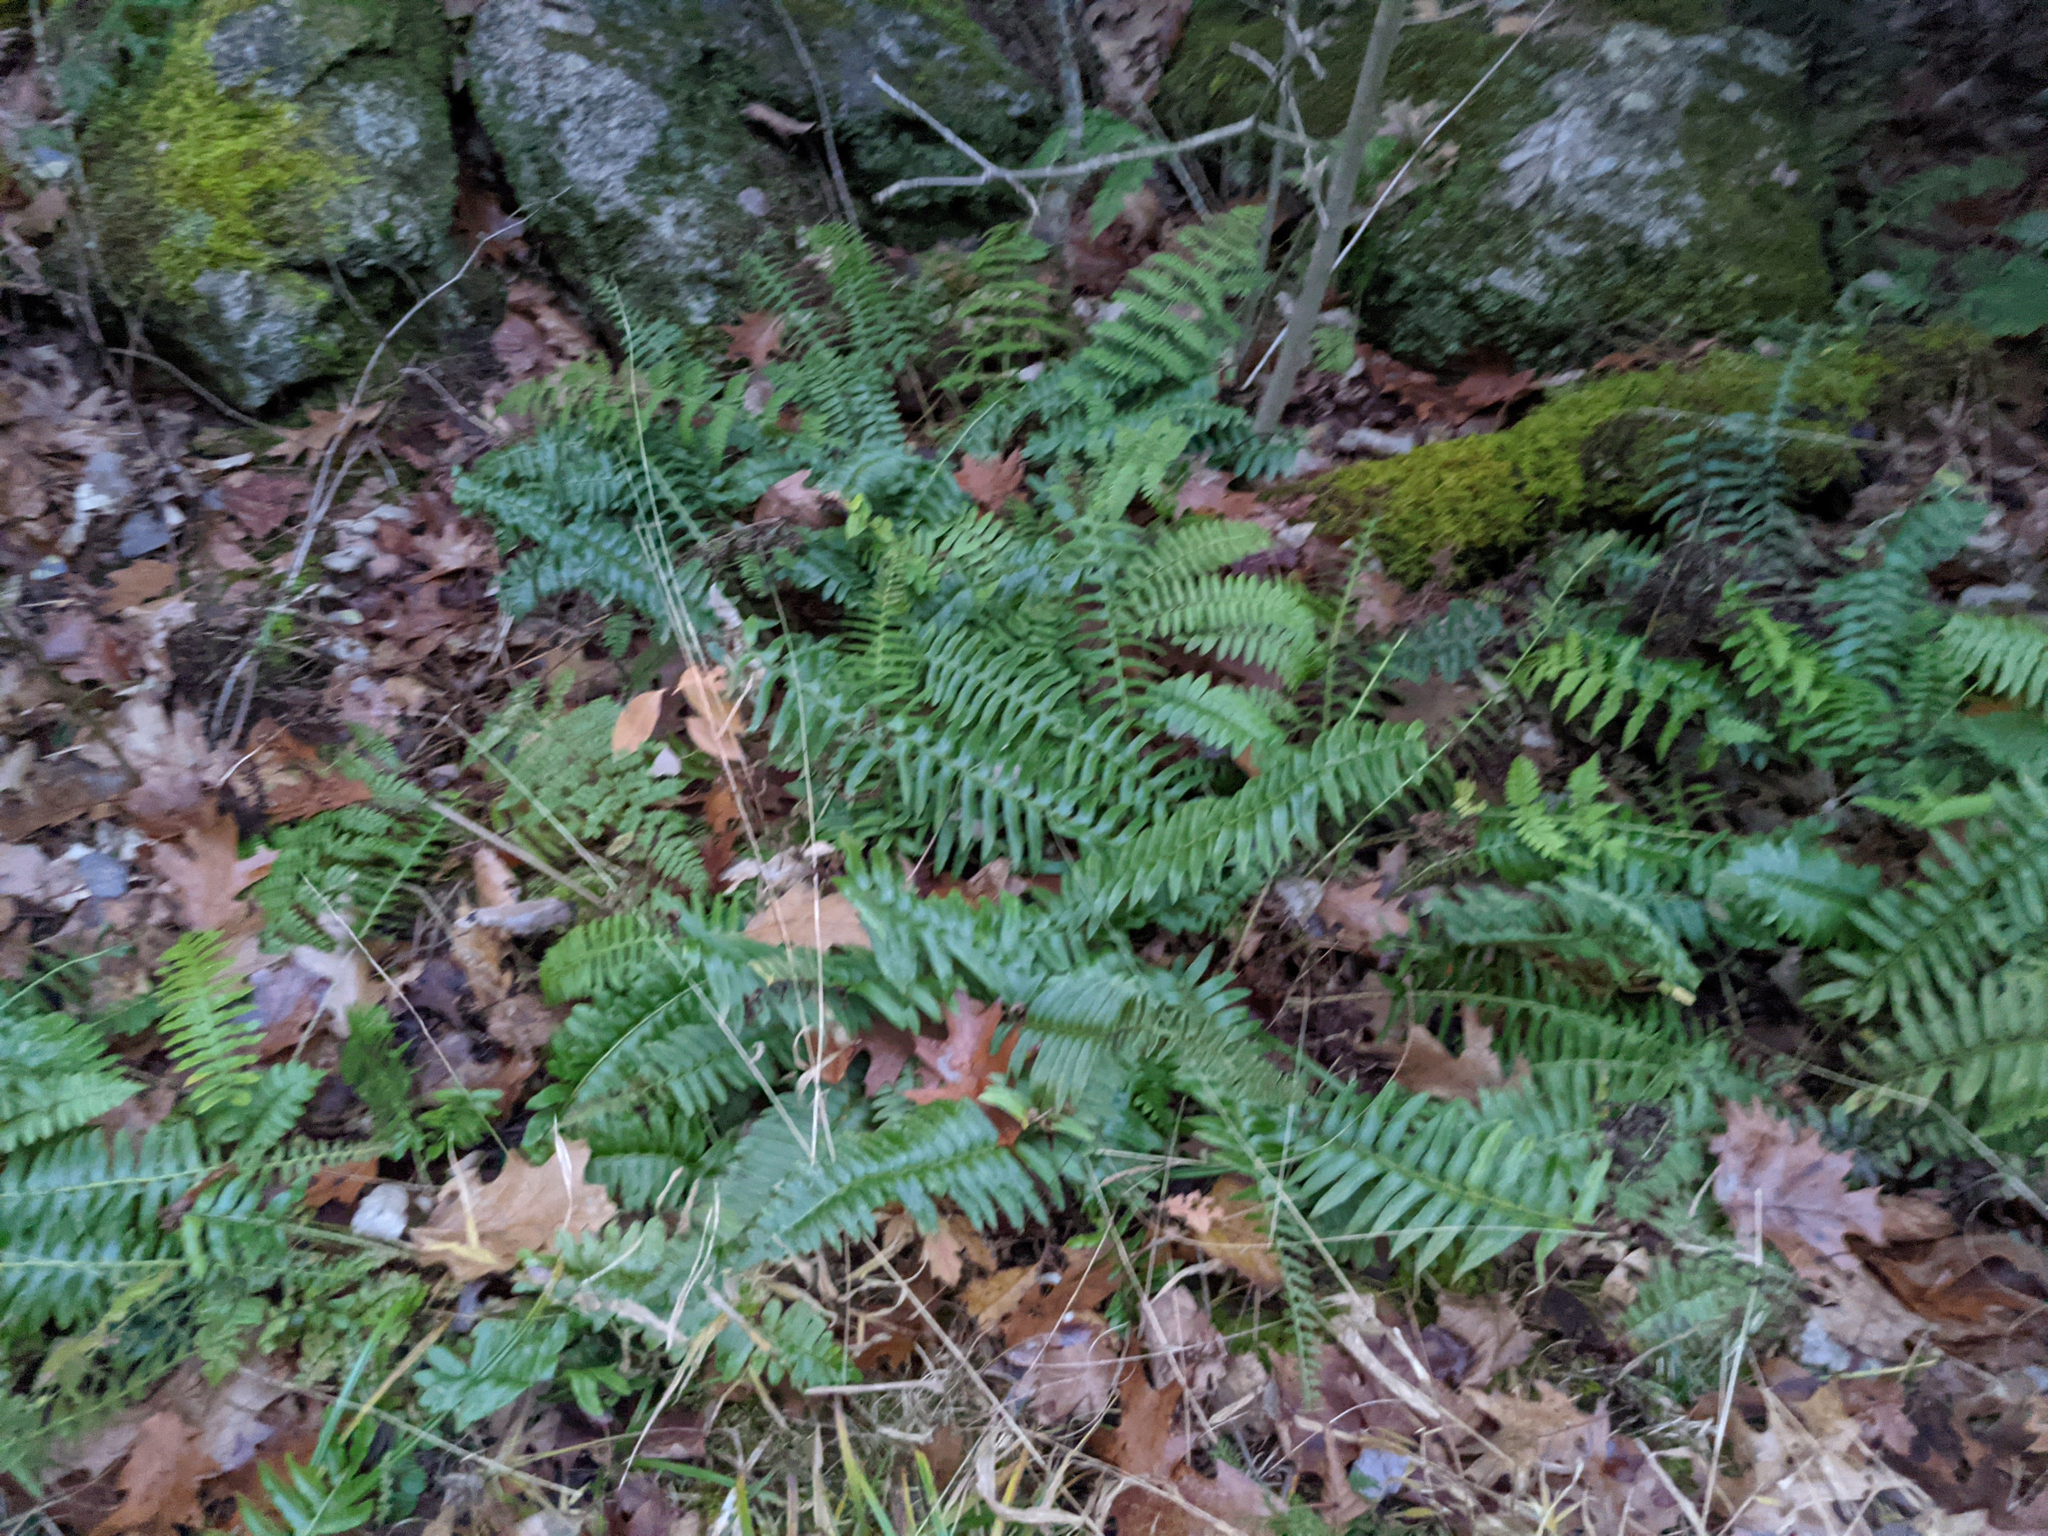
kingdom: Plantae
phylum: Tracheophyta
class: Polypodiopsida
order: Polypodiales
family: Dryopteridaceae
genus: Polystichum
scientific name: Polystichum acrostichoides
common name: Christmas fern
